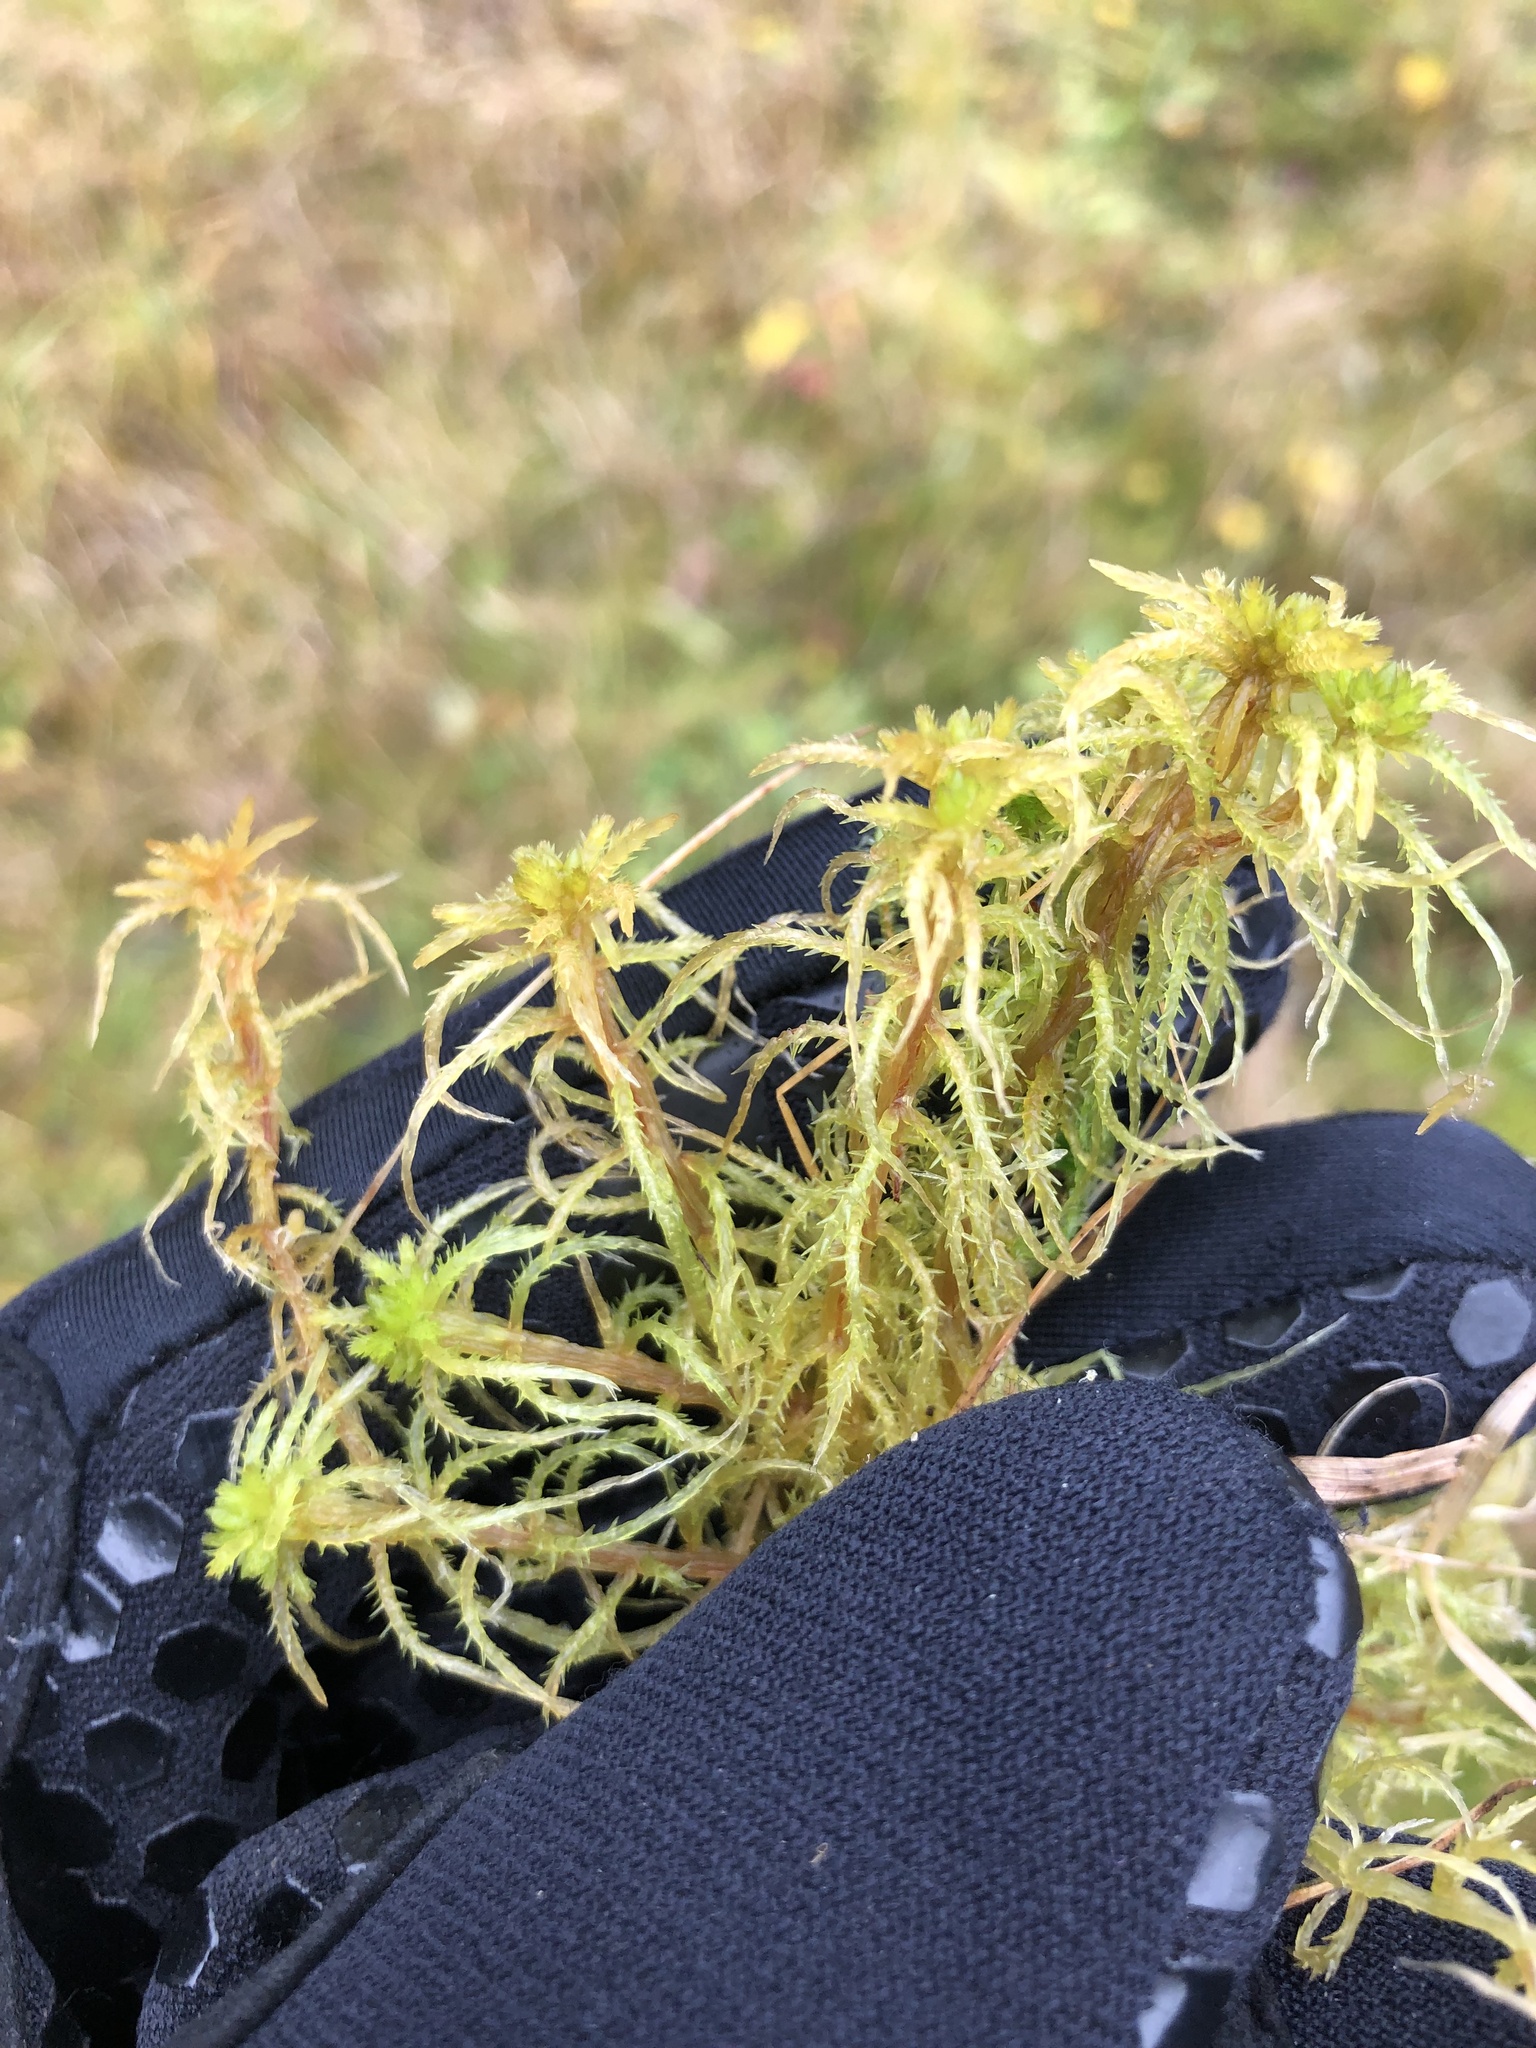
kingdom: Plantae
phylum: Bryophyta
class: Sphagnopsida
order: Sphagnales
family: Sphagnaceae
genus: Sphagnum
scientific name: Sphagnum teres
